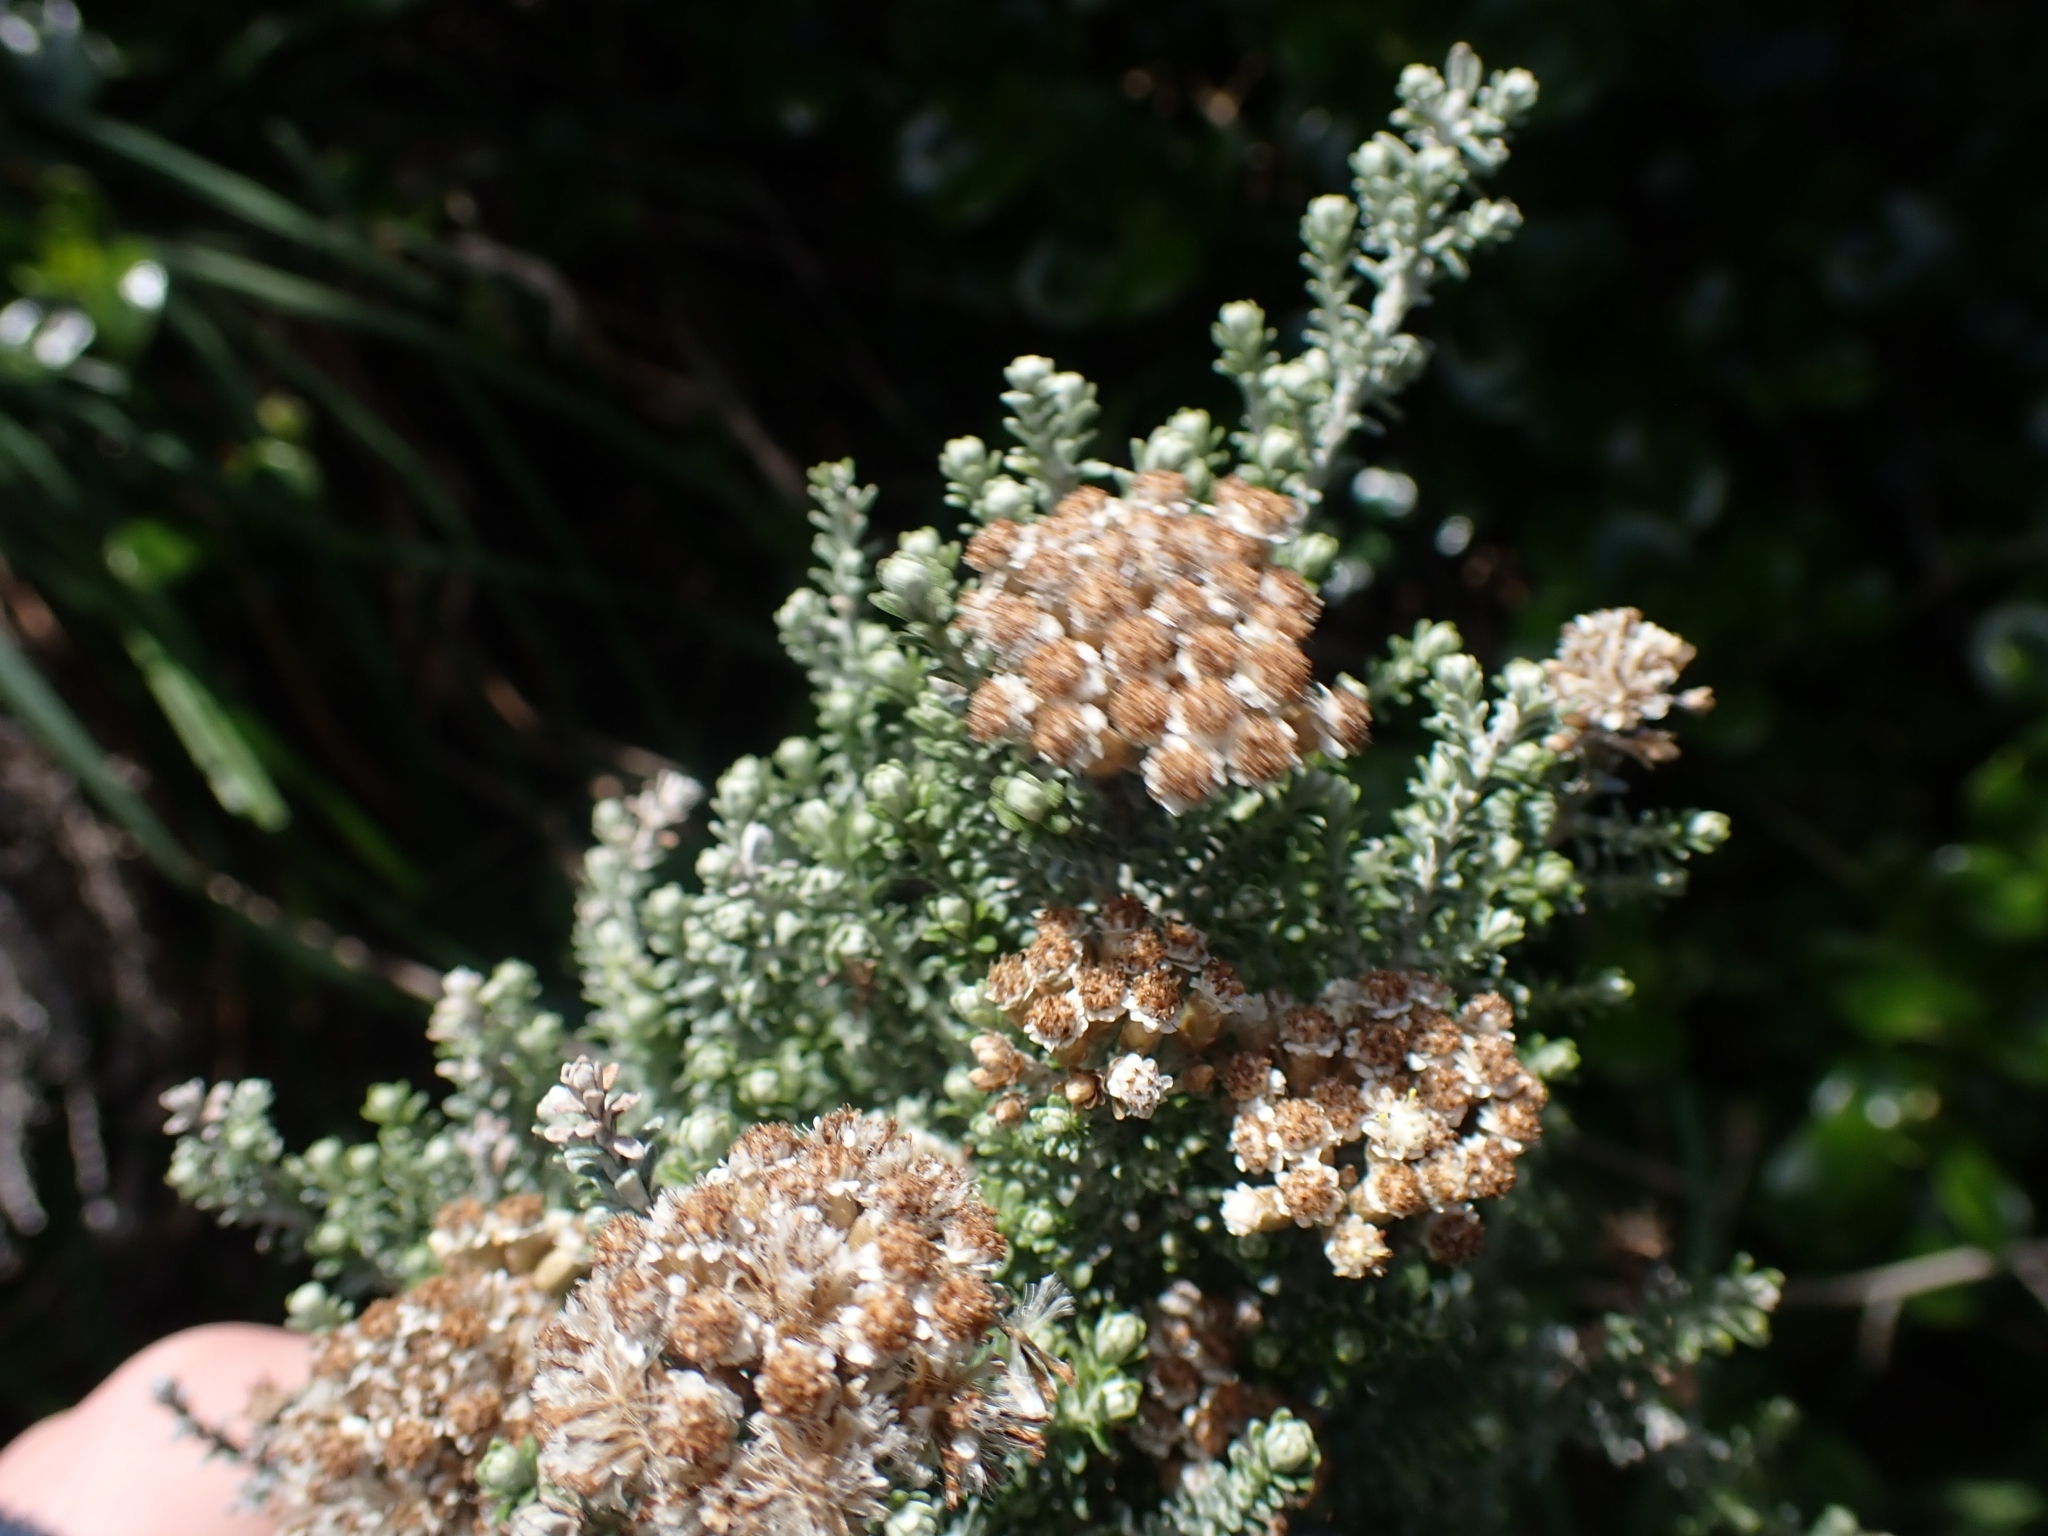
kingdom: Plantae
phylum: Tracheophyta
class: Magnoliopsida
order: Asterales
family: Asteraceae
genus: Ozothamnus
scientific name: Ozothamnus leptophyllus
